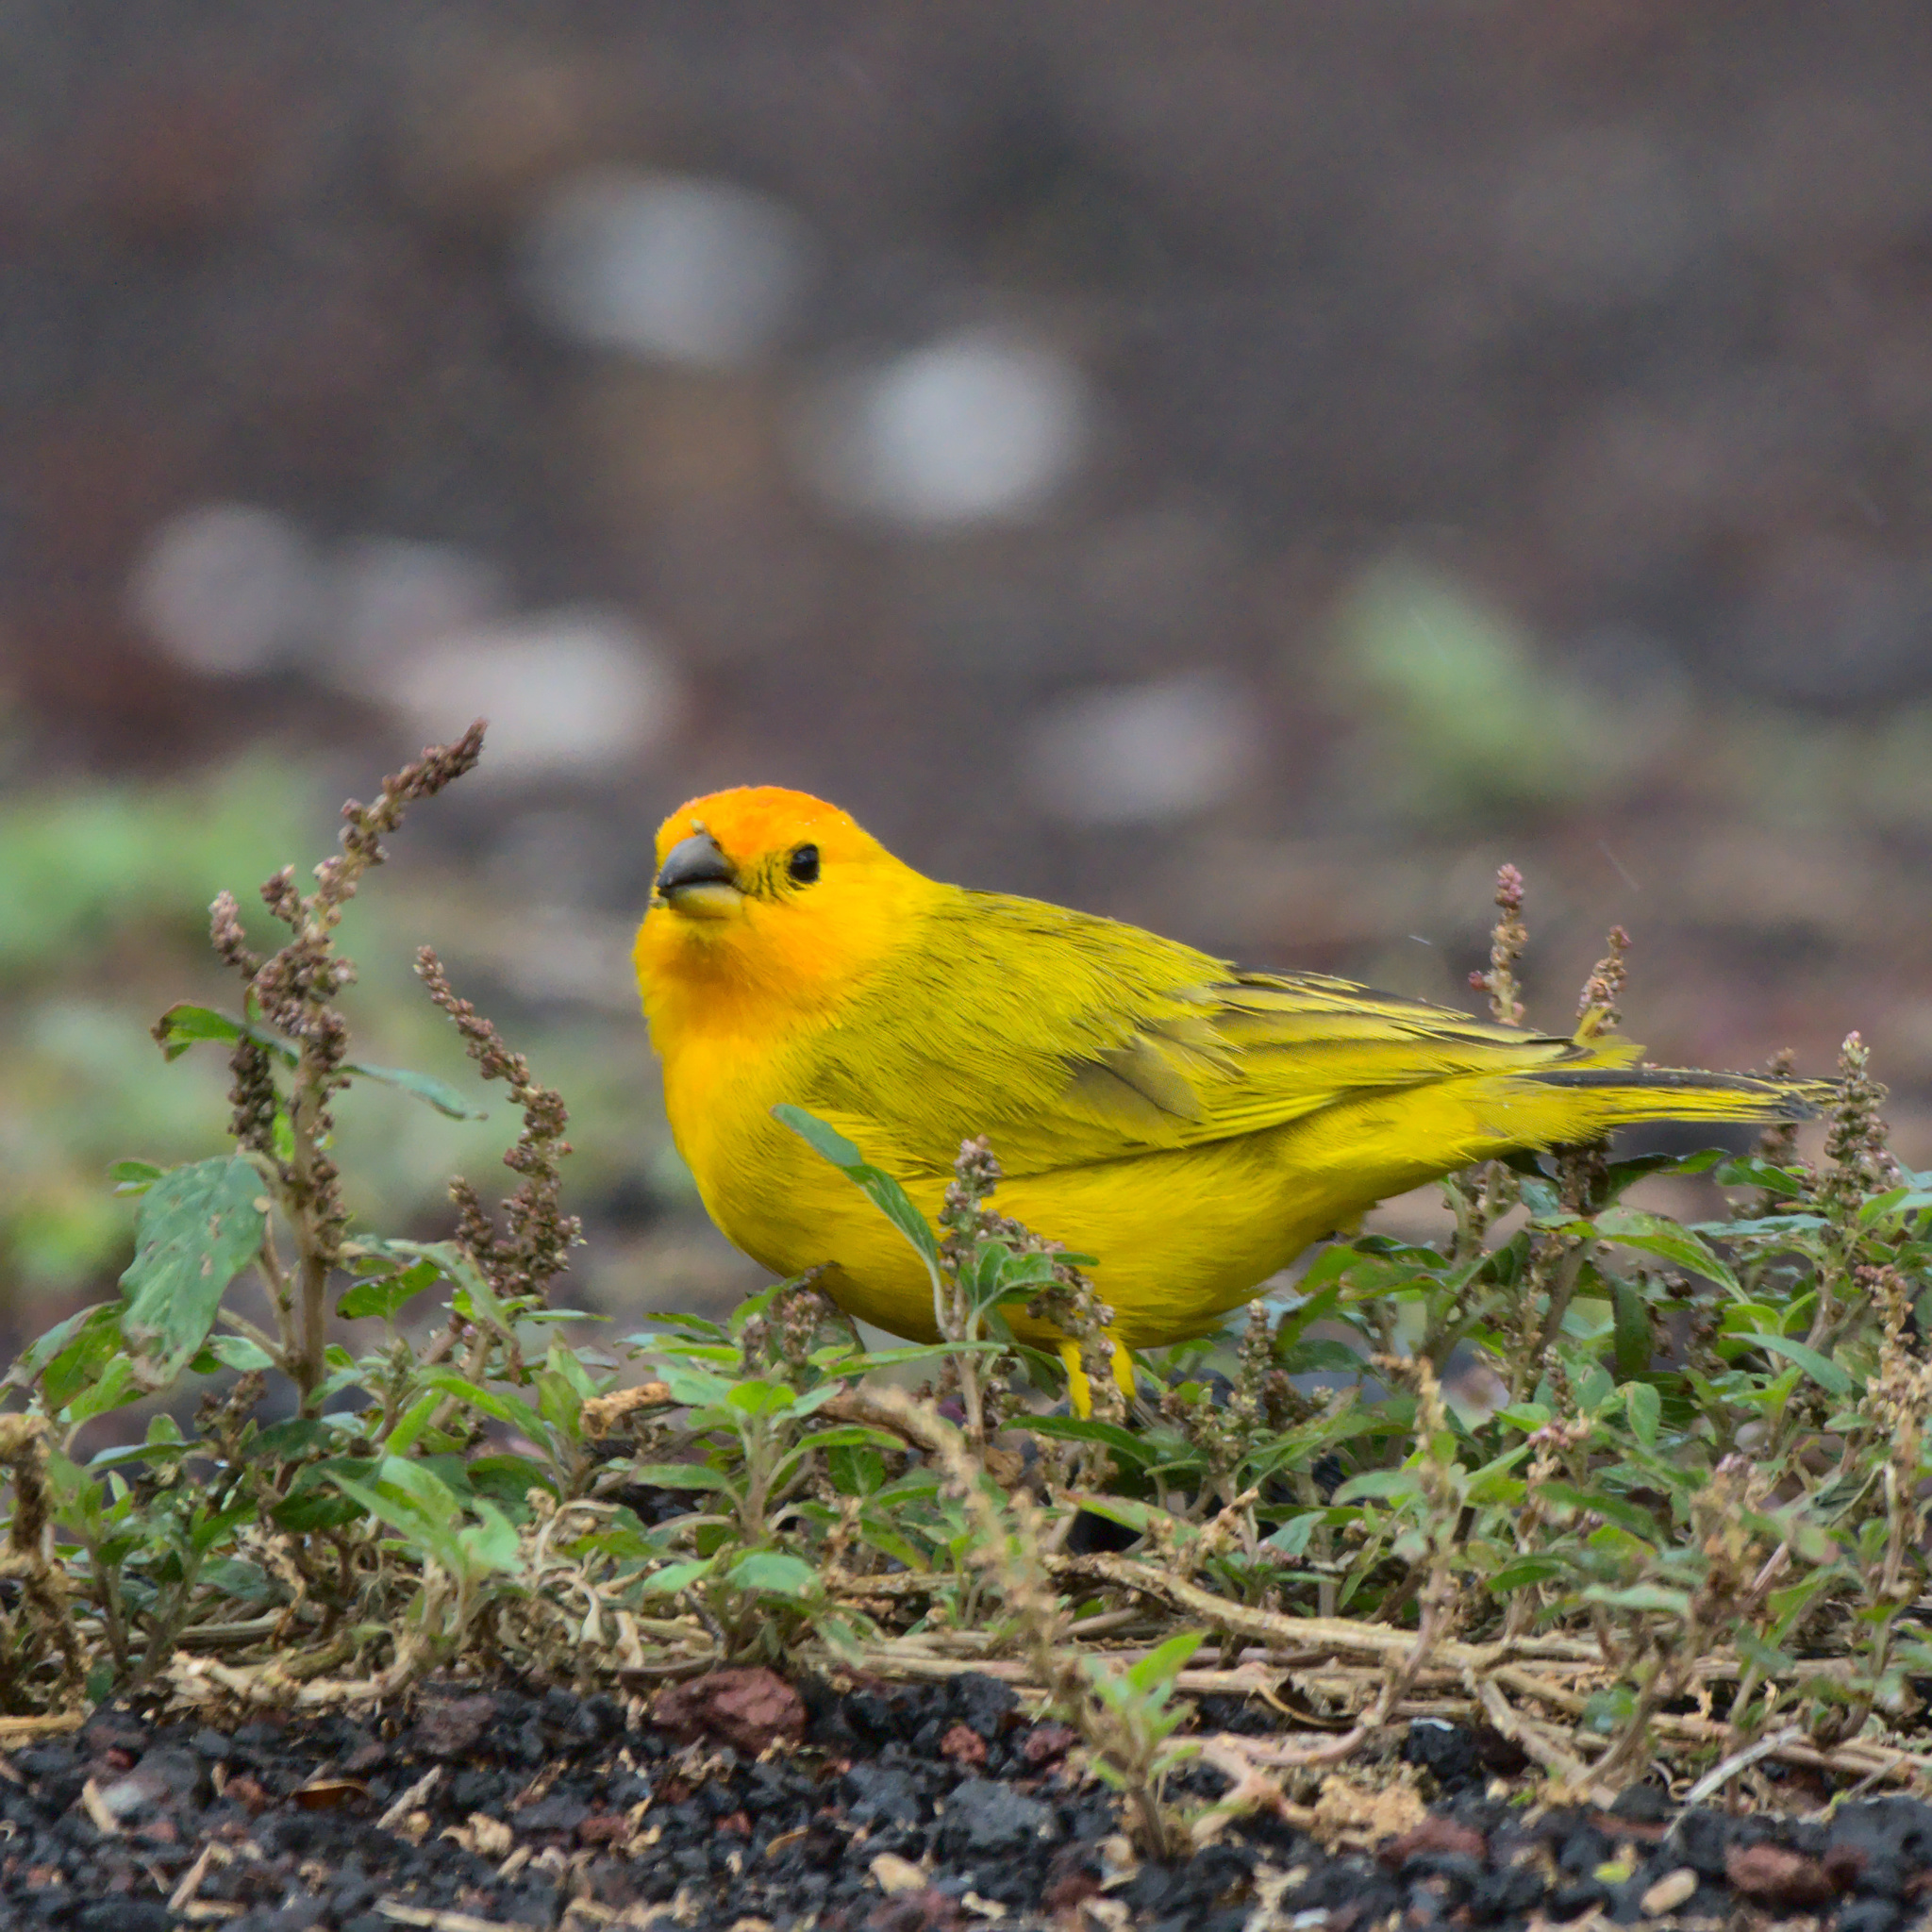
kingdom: Animalia
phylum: Chordata
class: Aves
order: Passeriformes
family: Thraupidae
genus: Sicalis
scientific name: Sicalis flaveola
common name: Saffron finch
